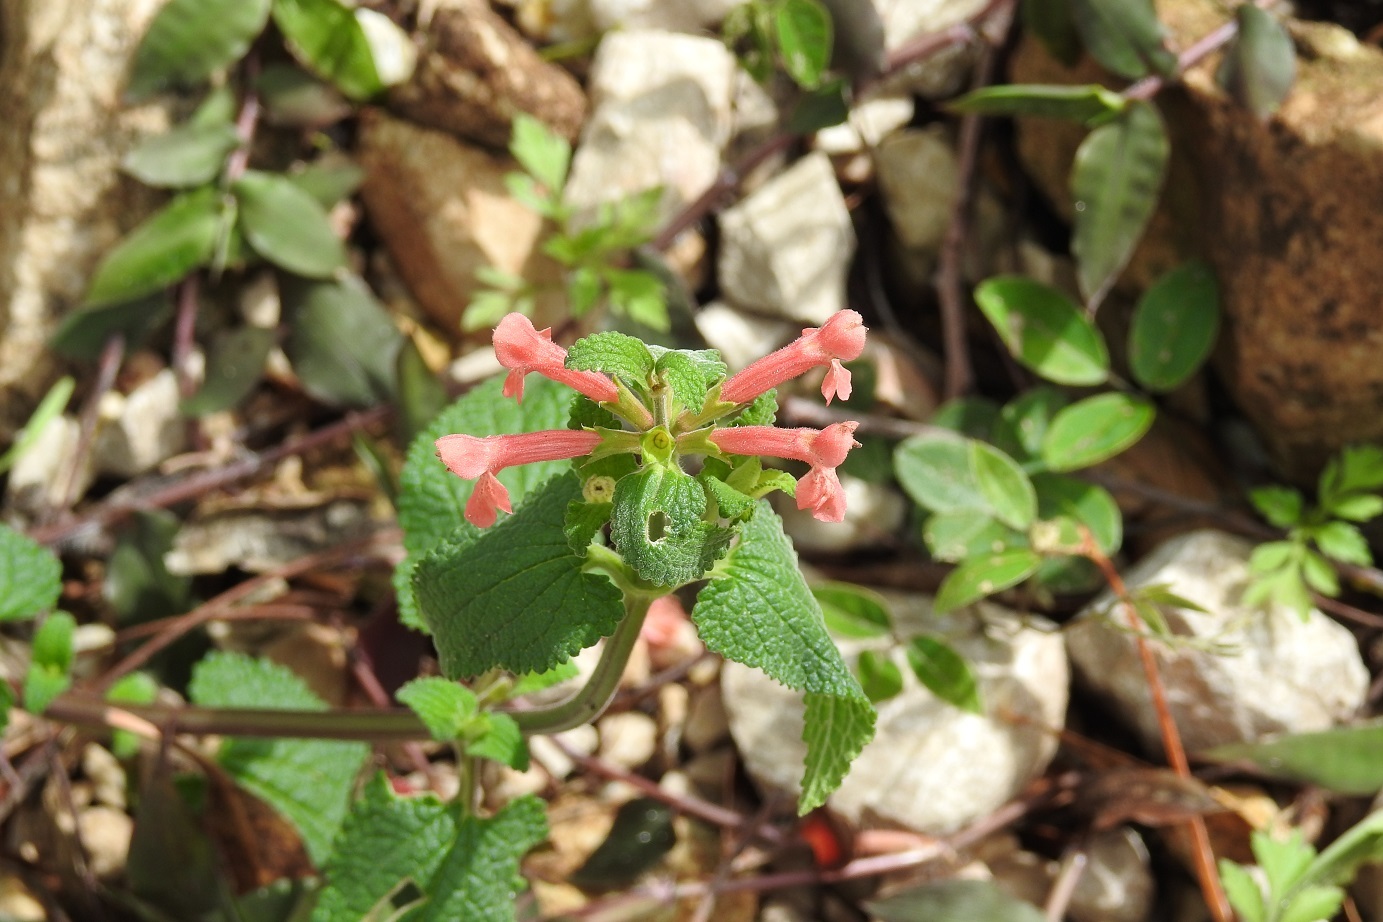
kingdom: Plantae
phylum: Tracheophyta
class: Magnoliopsida
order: Lamiales
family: Lamiaceae
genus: Stachys
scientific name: Stachys coccinea
